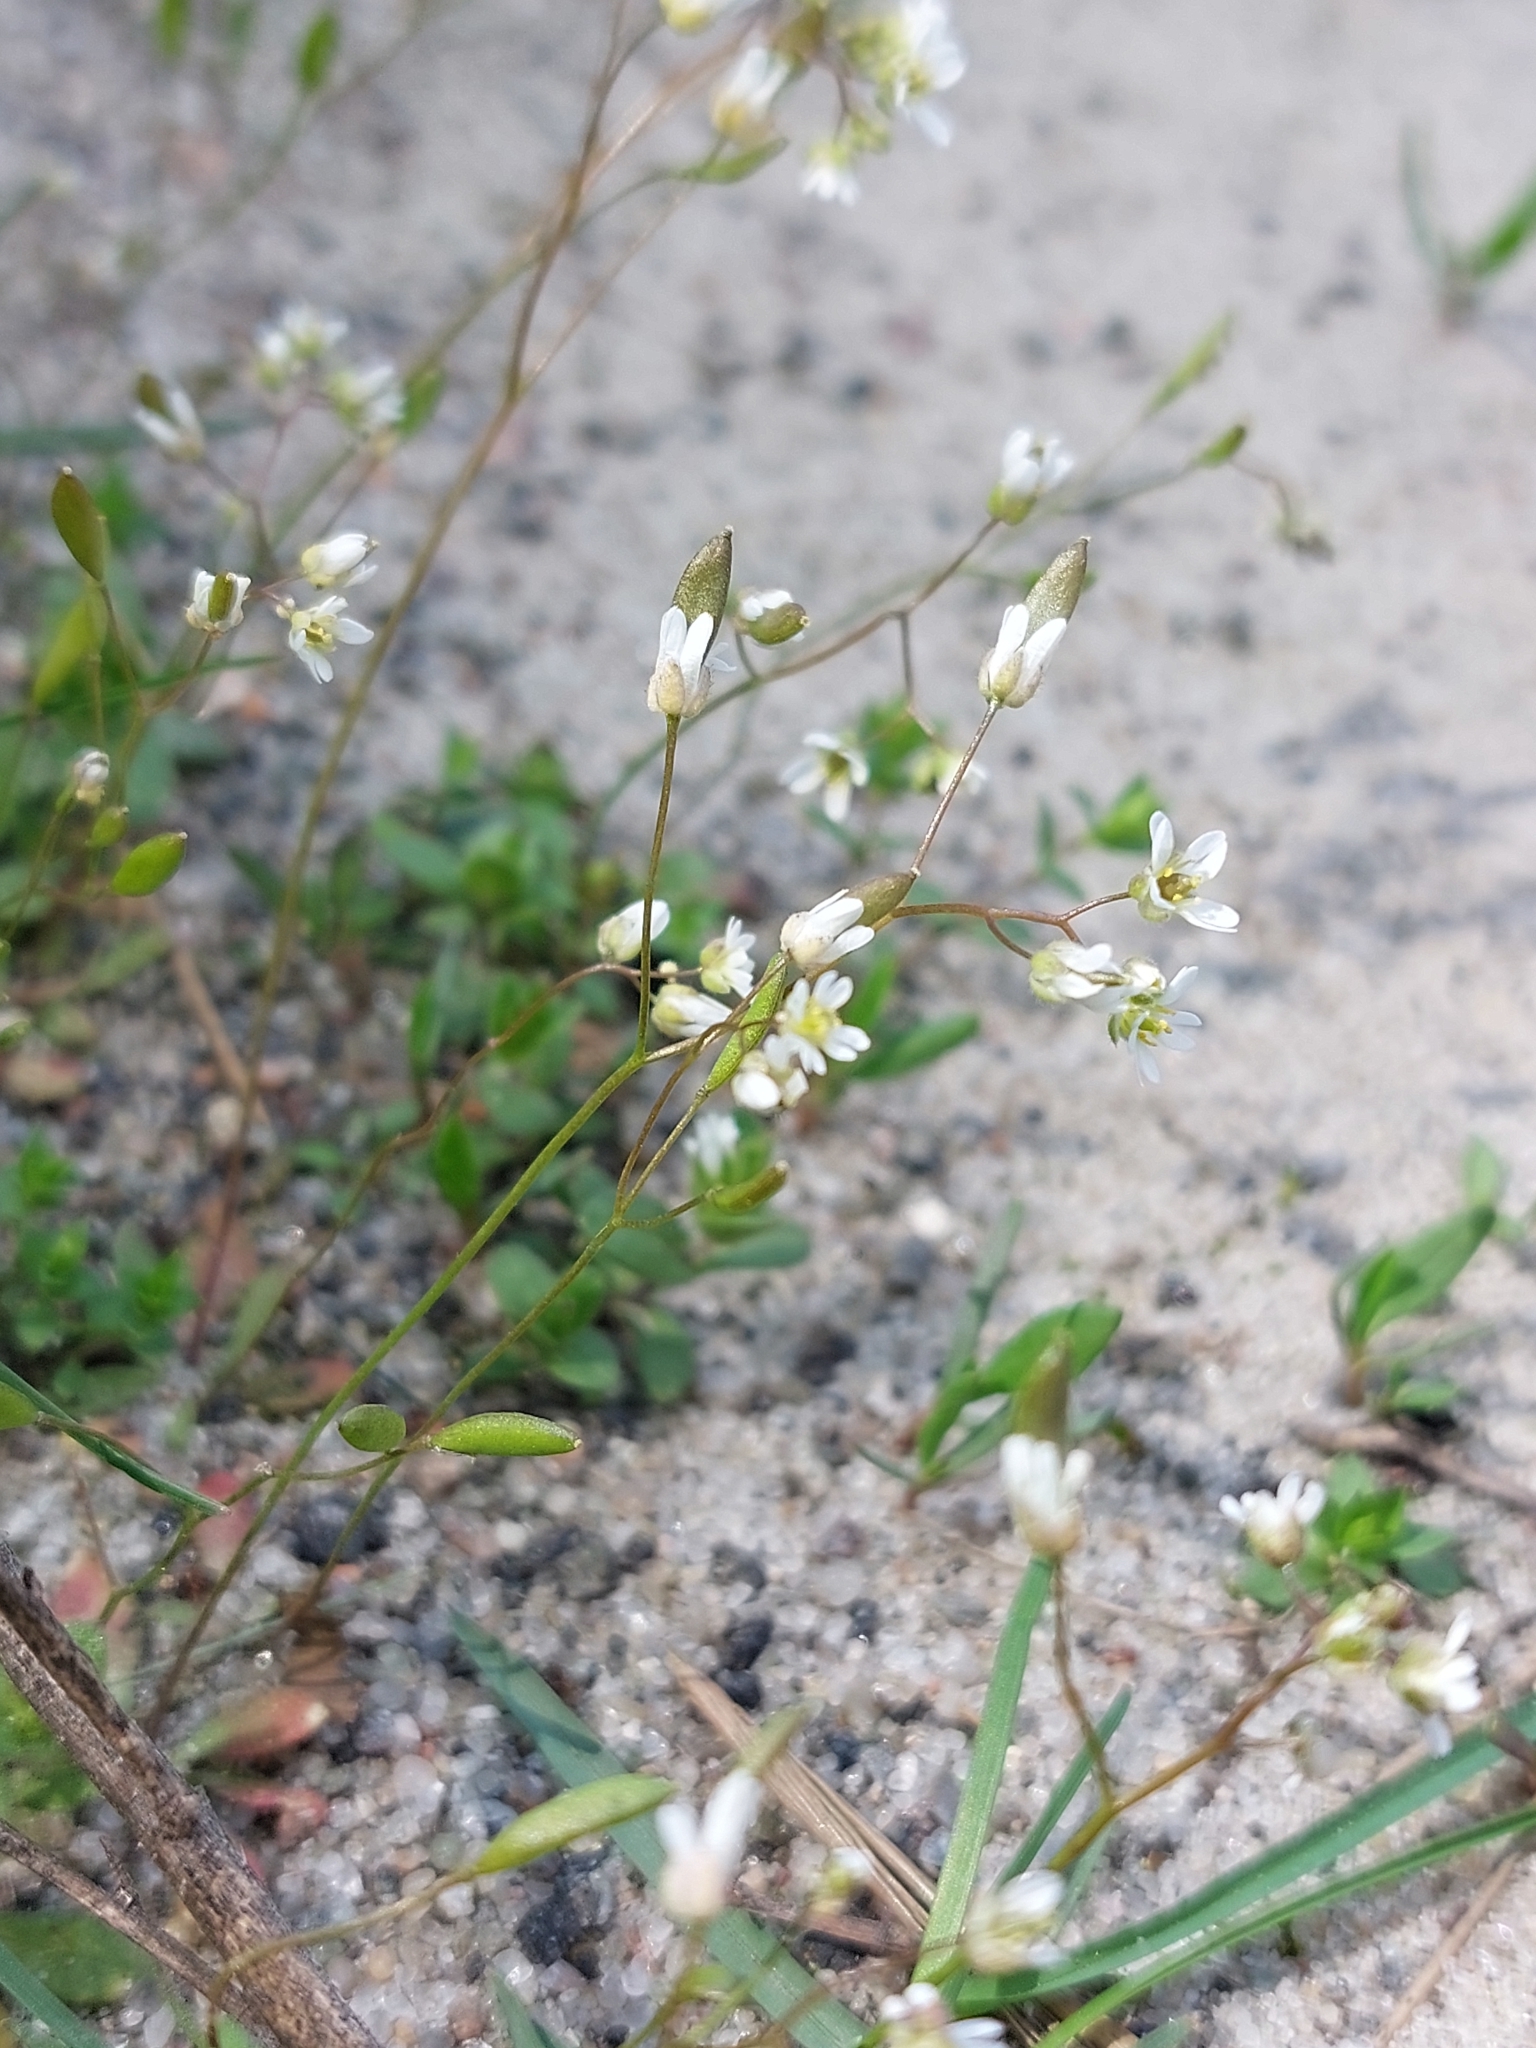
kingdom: Plantae
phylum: Tracheophyta
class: Magnoliopsida
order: Brassicales
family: Brassicaceae
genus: Draba
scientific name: Draba verna
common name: Spring draba
